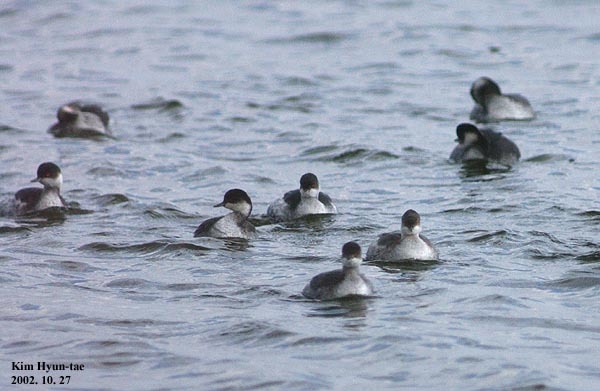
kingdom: Animalia
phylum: Chordata
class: Aves
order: Podicipediformes
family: Podicipedidae
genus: Podiceps
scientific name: Podiceps nigricollis
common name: Black-necked grebe
